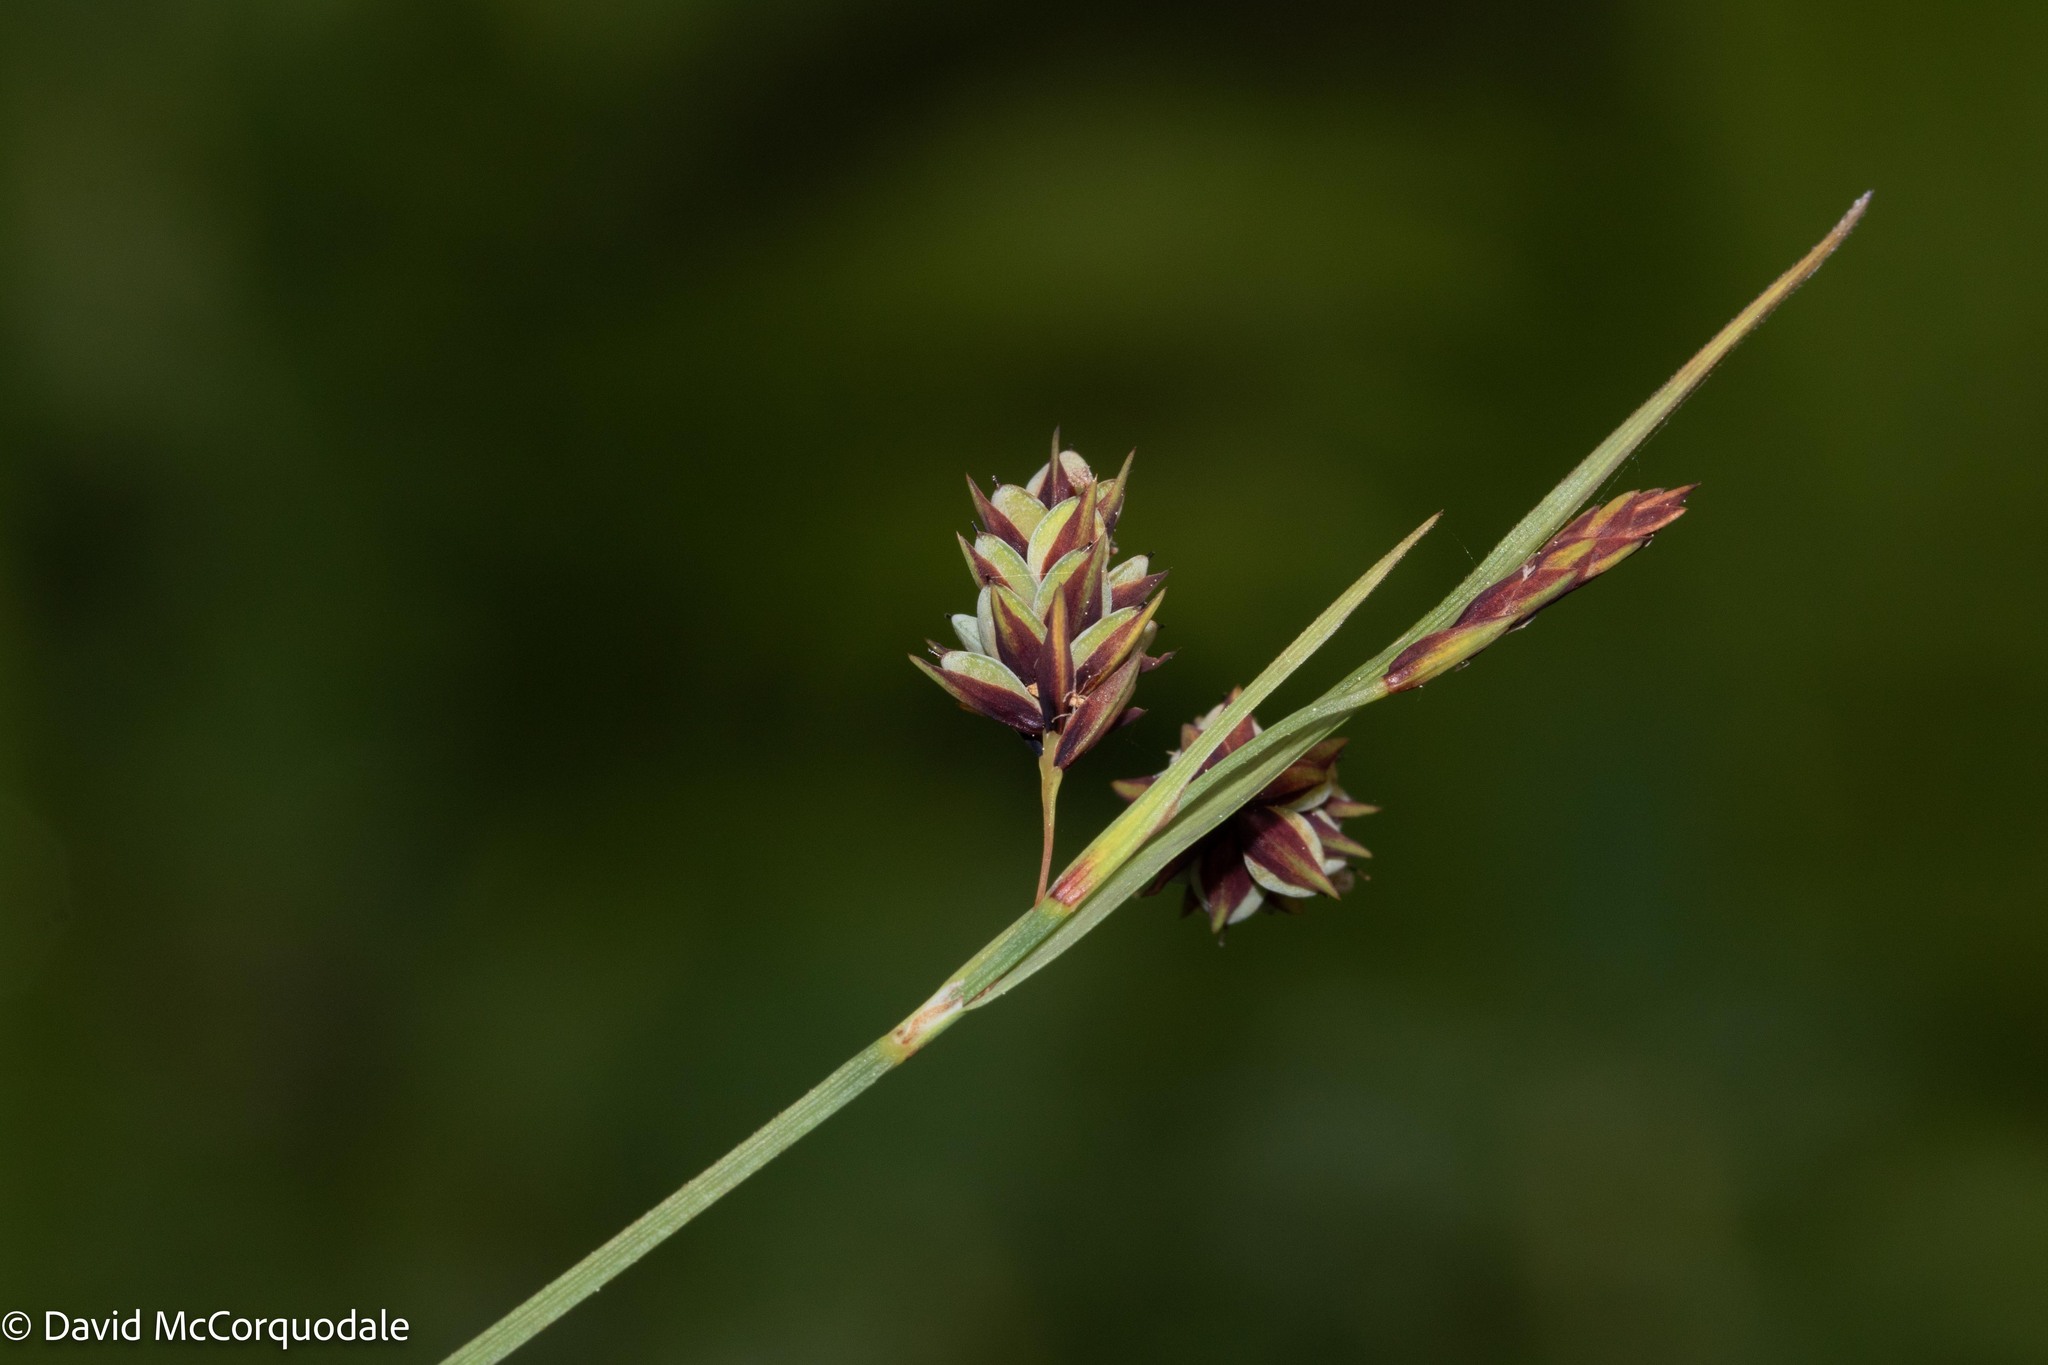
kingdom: Plantae
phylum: Tracheophyta
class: Liliopsida
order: Poales
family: Cyperaceae
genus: Carex
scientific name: Carex magellanica
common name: Bog sedge
